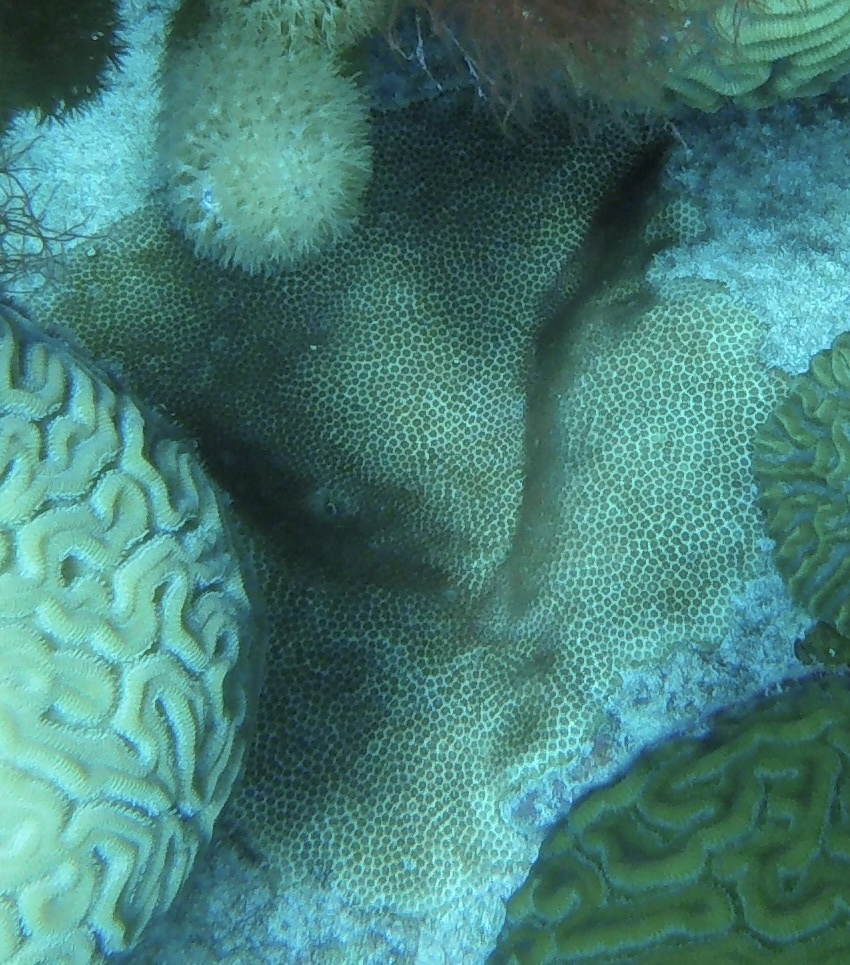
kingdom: Animalia
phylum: Cnidaria
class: Anthozoa
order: Scleractinia
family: Astrocoeniidae
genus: Stephanocoenia
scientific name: Stephanocoenia intersepta
